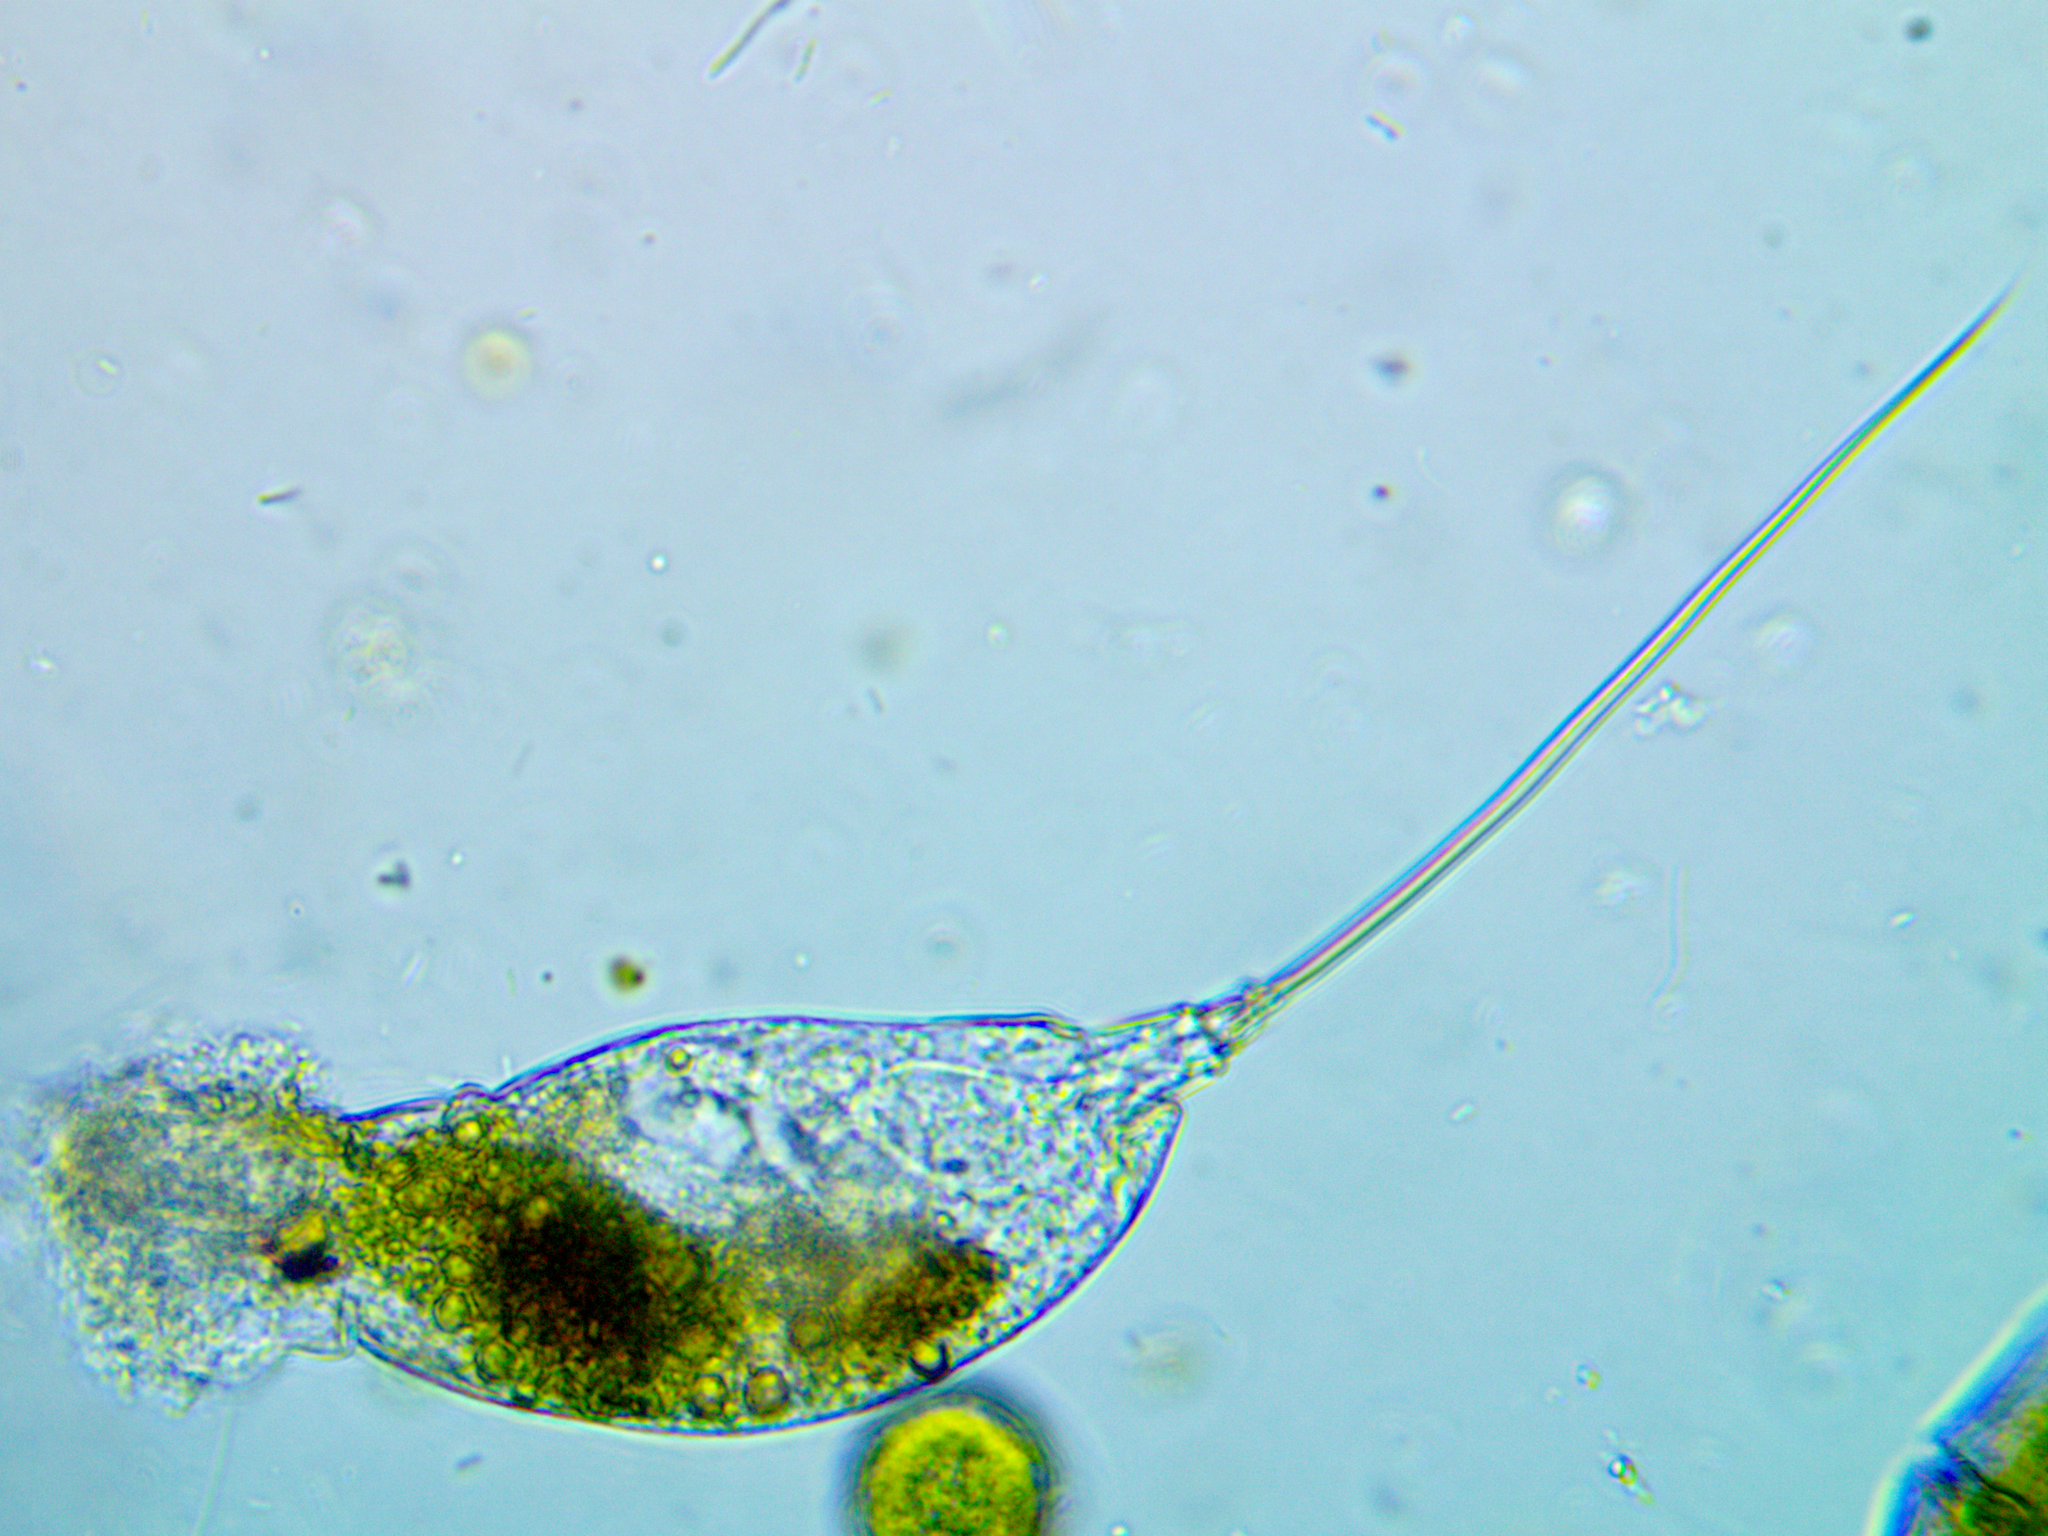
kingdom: Animalia
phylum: Rotifera
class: Eurotatoria
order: Ploima
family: Trichocercidae
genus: Trichocerca
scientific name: Trichocerca rattus
